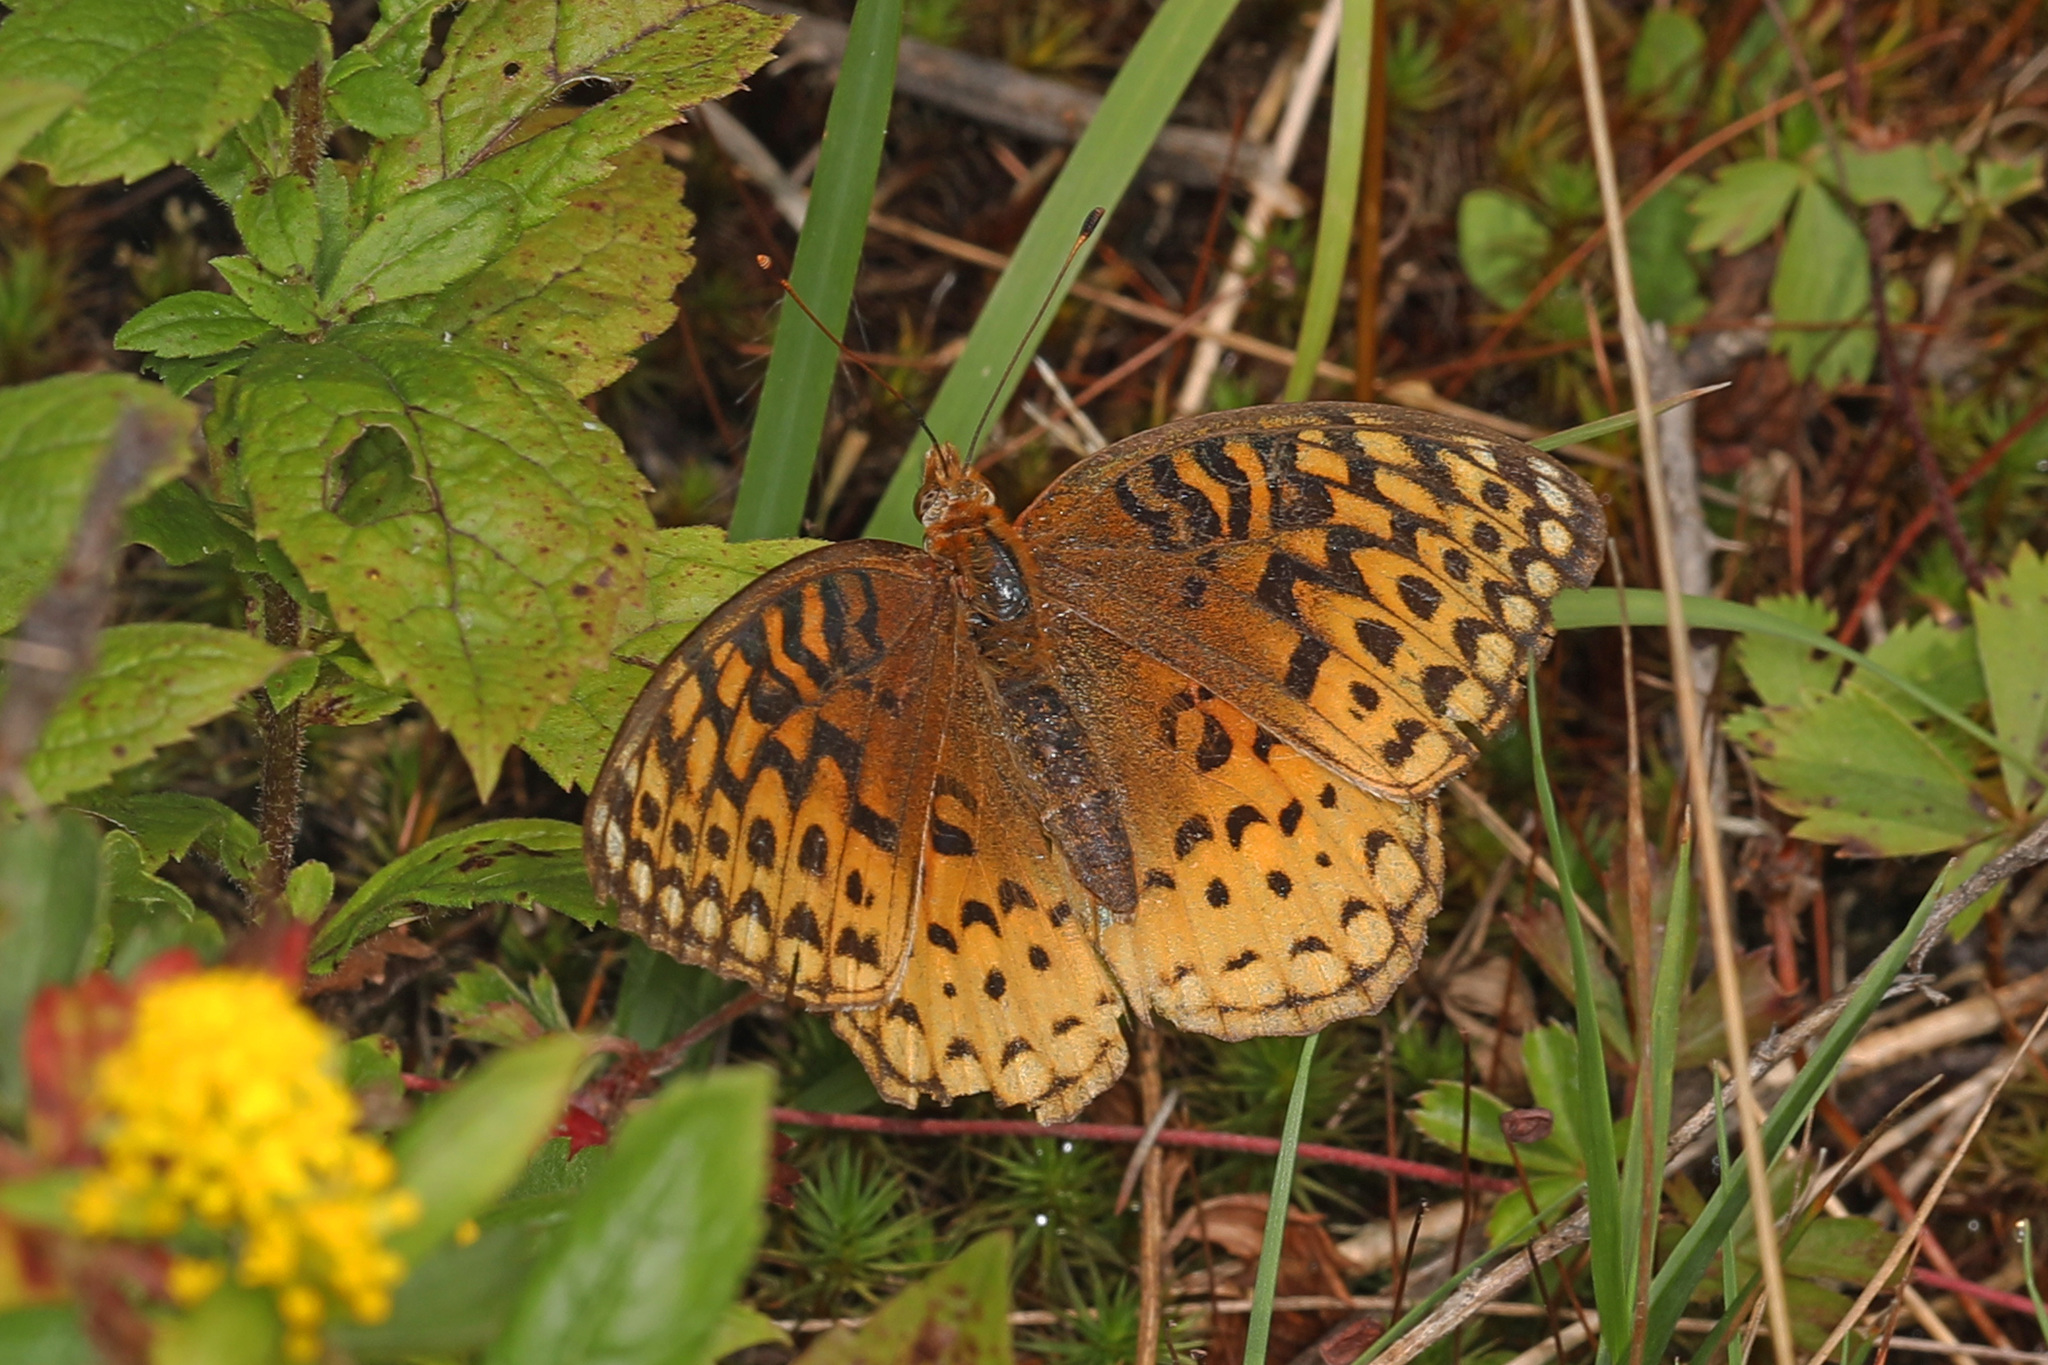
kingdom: Animalia
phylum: Arthropoda
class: Insecta
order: Lepidoptera
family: Nymphalidae
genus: Speyeria
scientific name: Speyeria aphrodite
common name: Aphrodite friitllary
